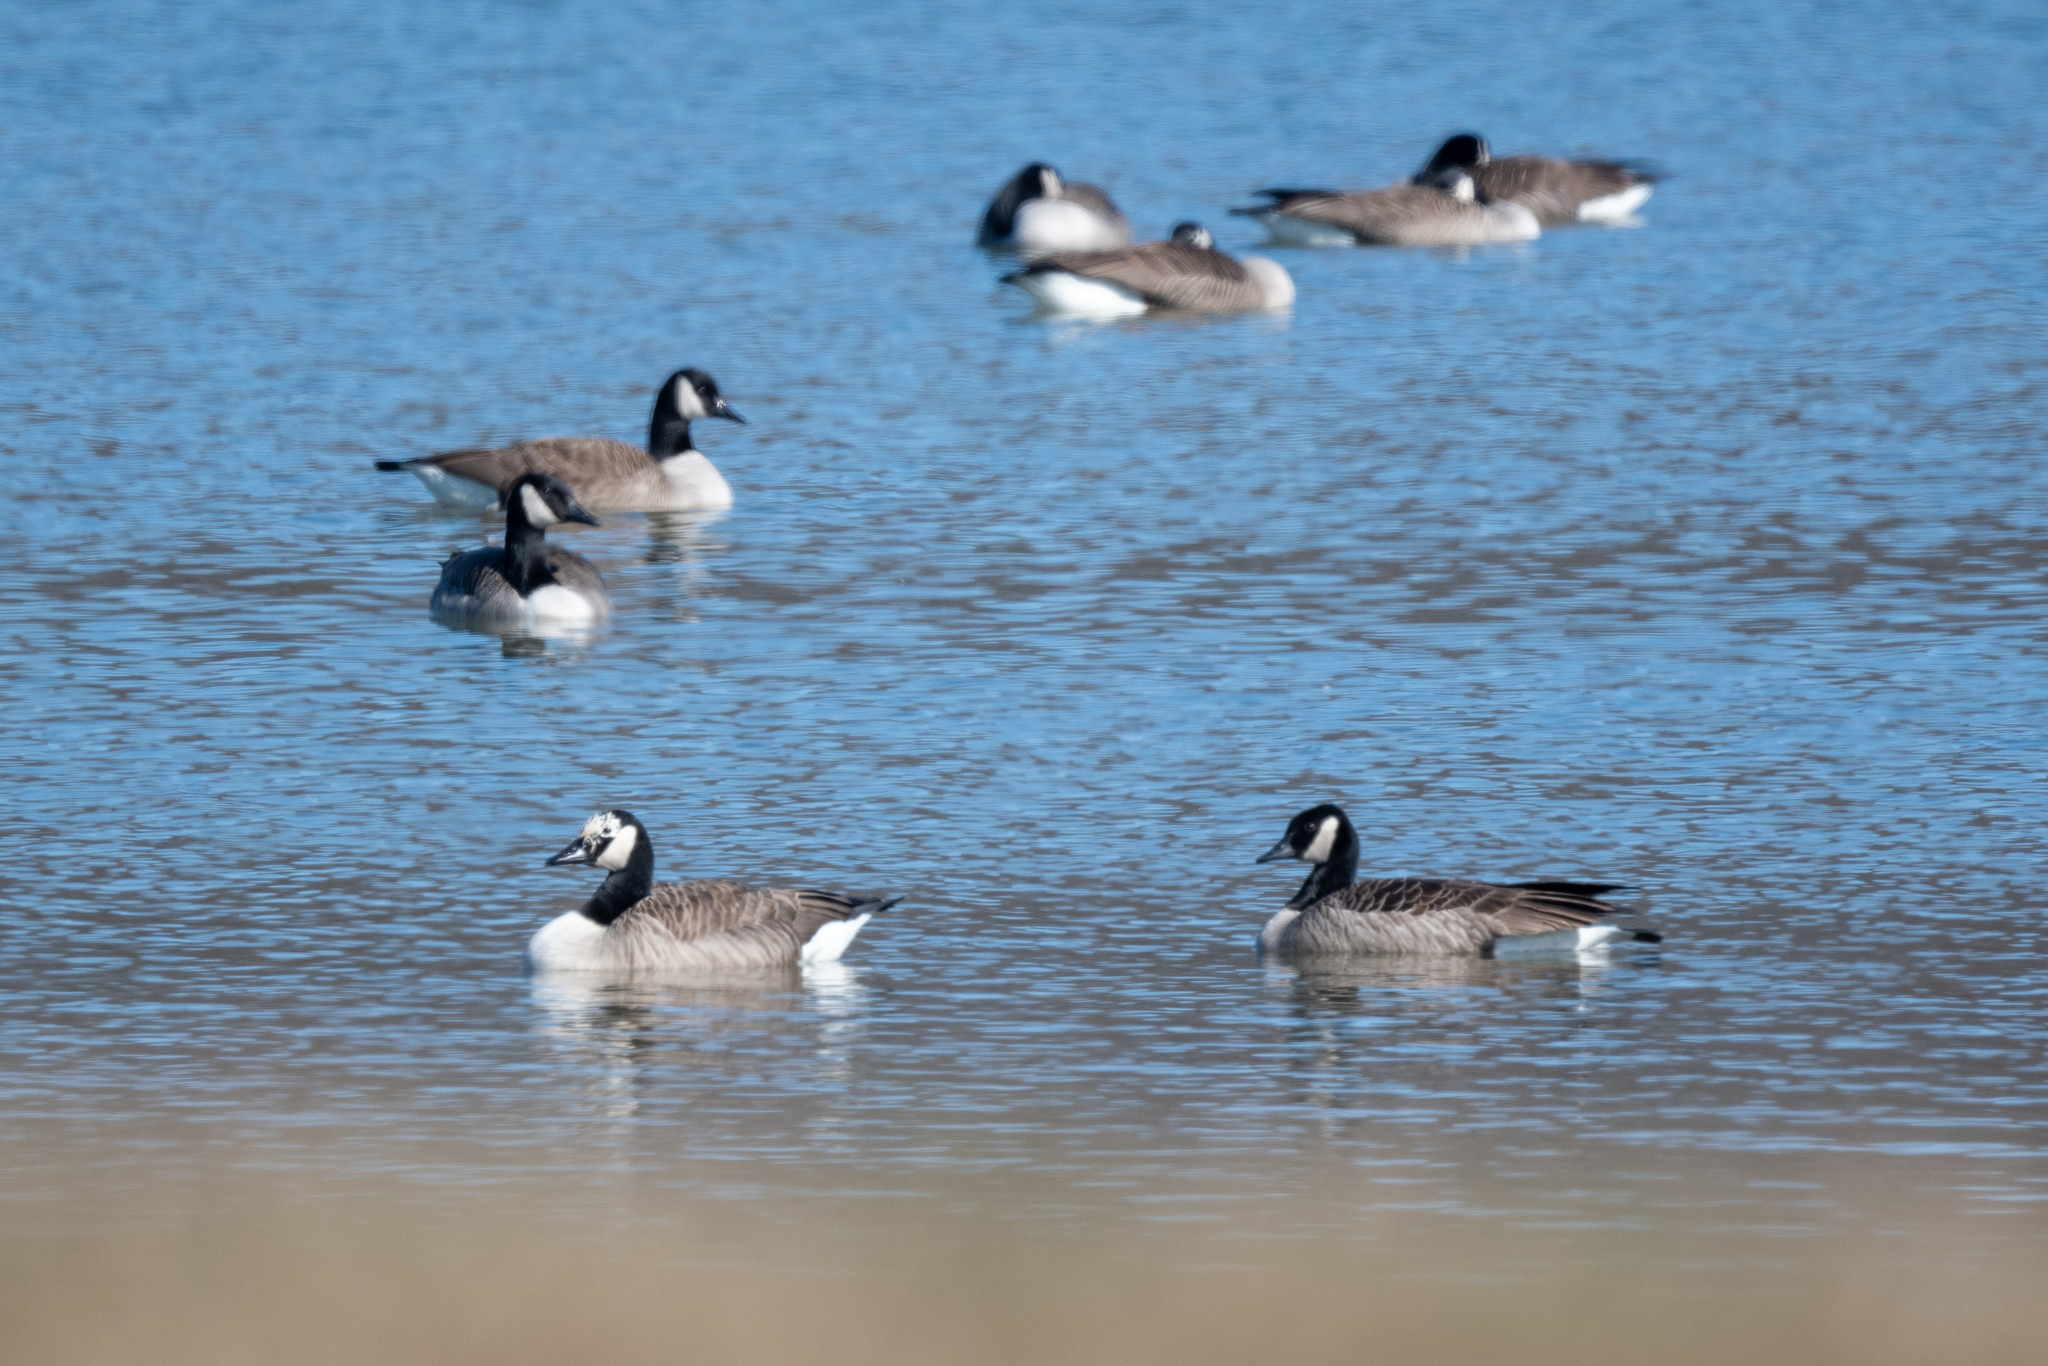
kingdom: Animalia
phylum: Chordata
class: Aves
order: Anseriformes
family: Anatidae
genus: Branta
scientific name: Branta canadensis
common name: Canada goose
